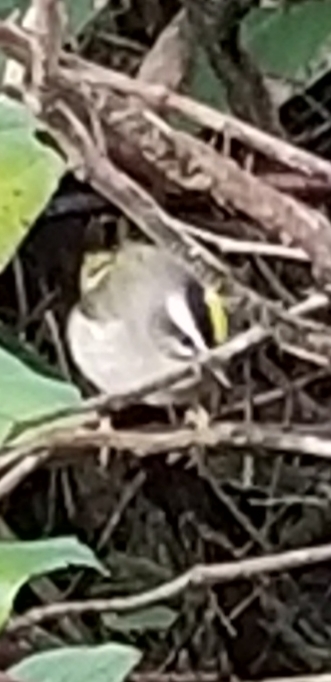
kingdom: Animalia
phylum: Chordata
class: Aves
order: Passeriformes
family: Regulidae
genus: Regulus
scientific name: Regulus satrapa
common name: Golden-crowned kinglet
